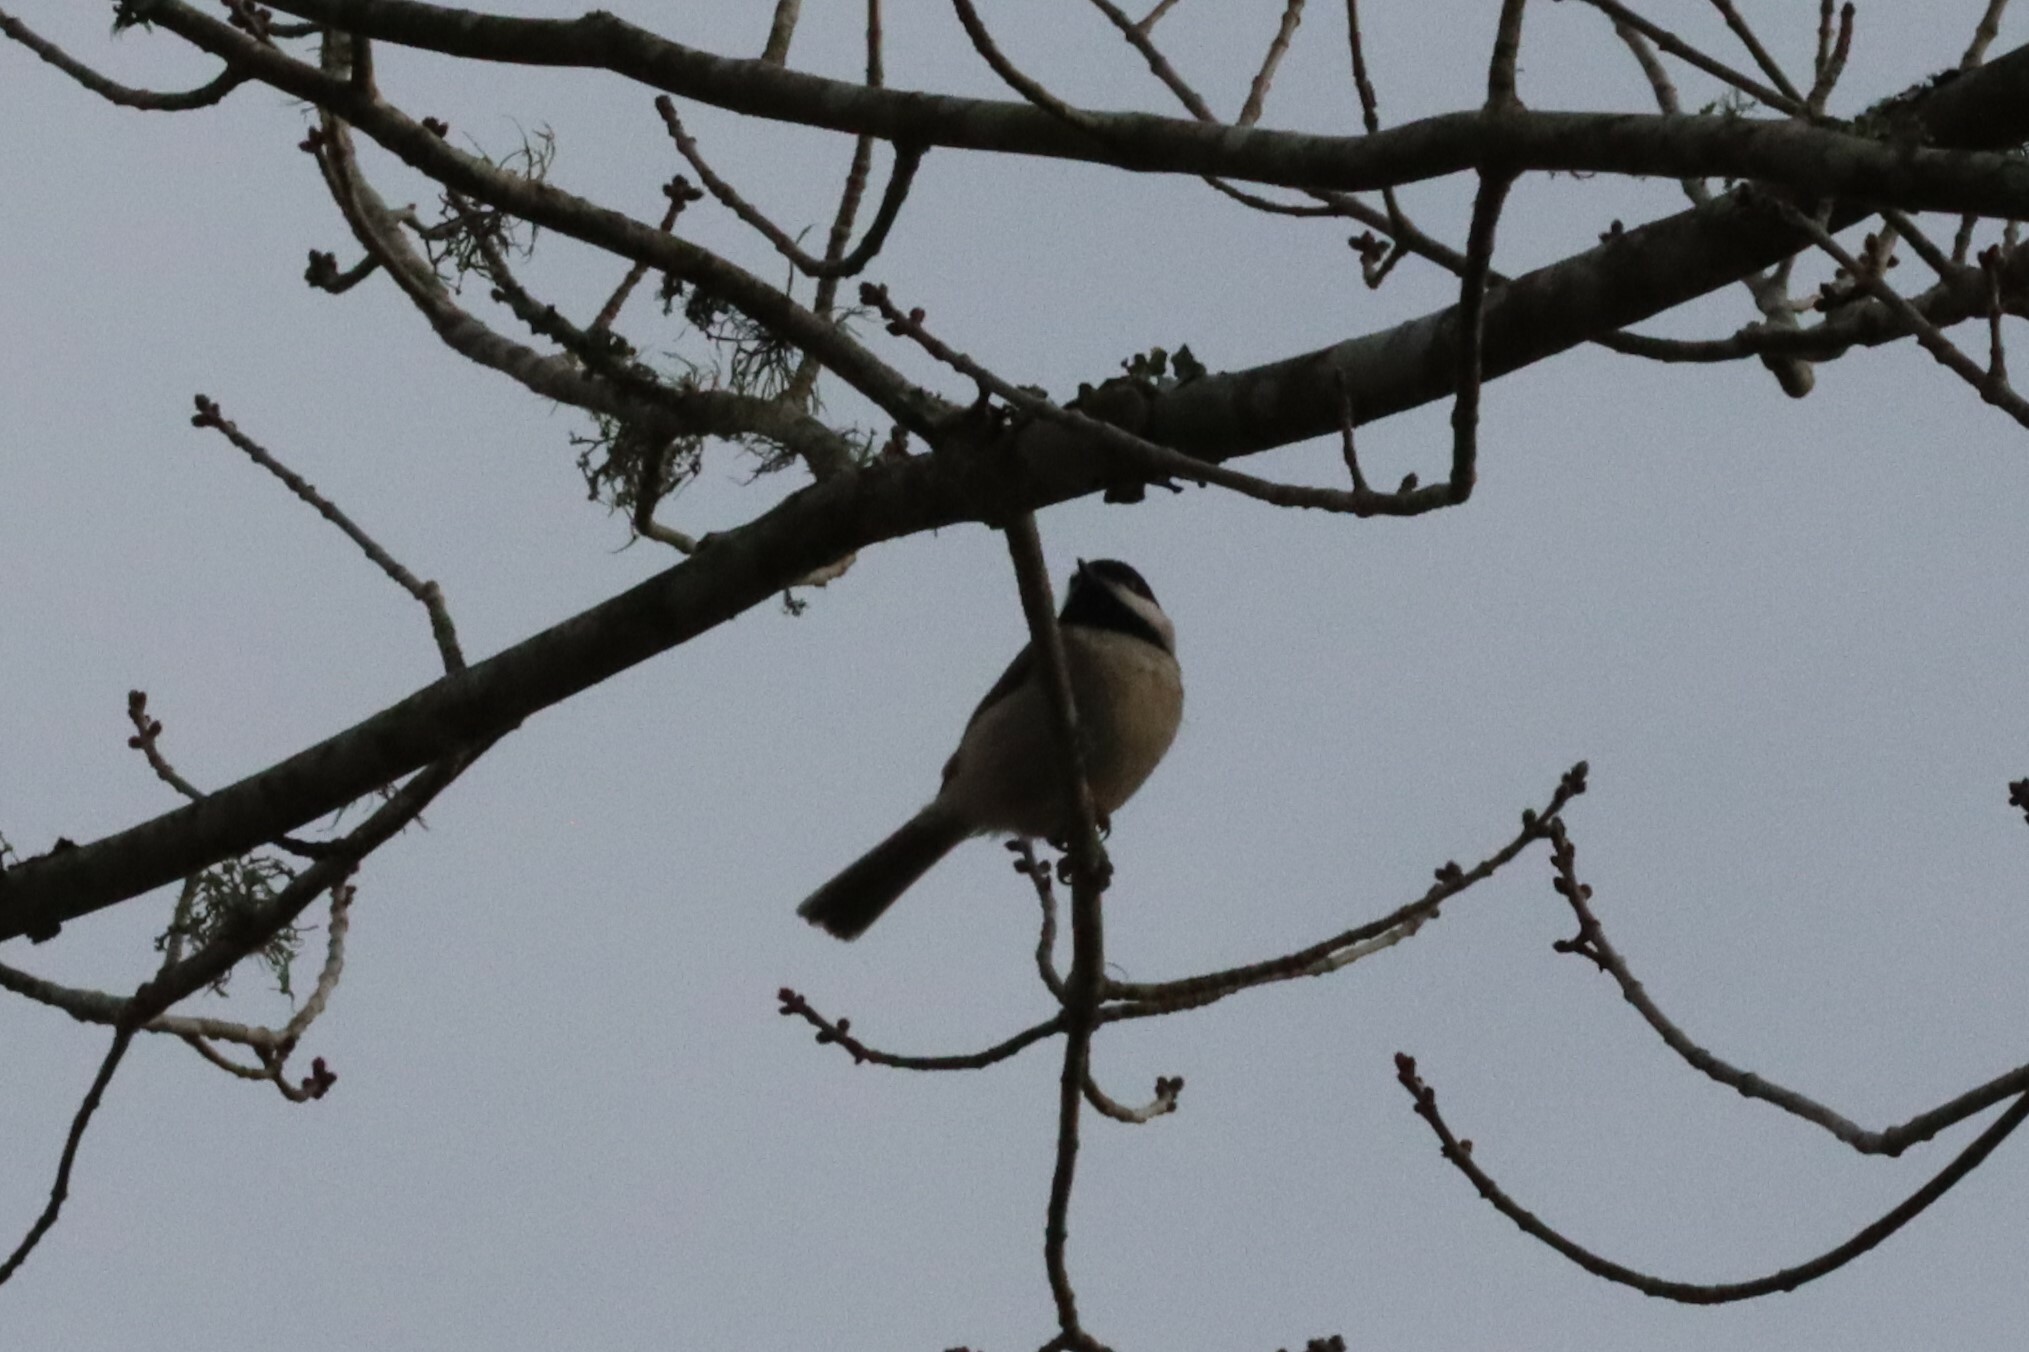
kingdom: Animalia
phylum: Chordata
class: Aves
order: Passeriformes
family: Paridae
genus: Poecile
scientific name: Poecile carolinensis
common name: Carolina chickadee
